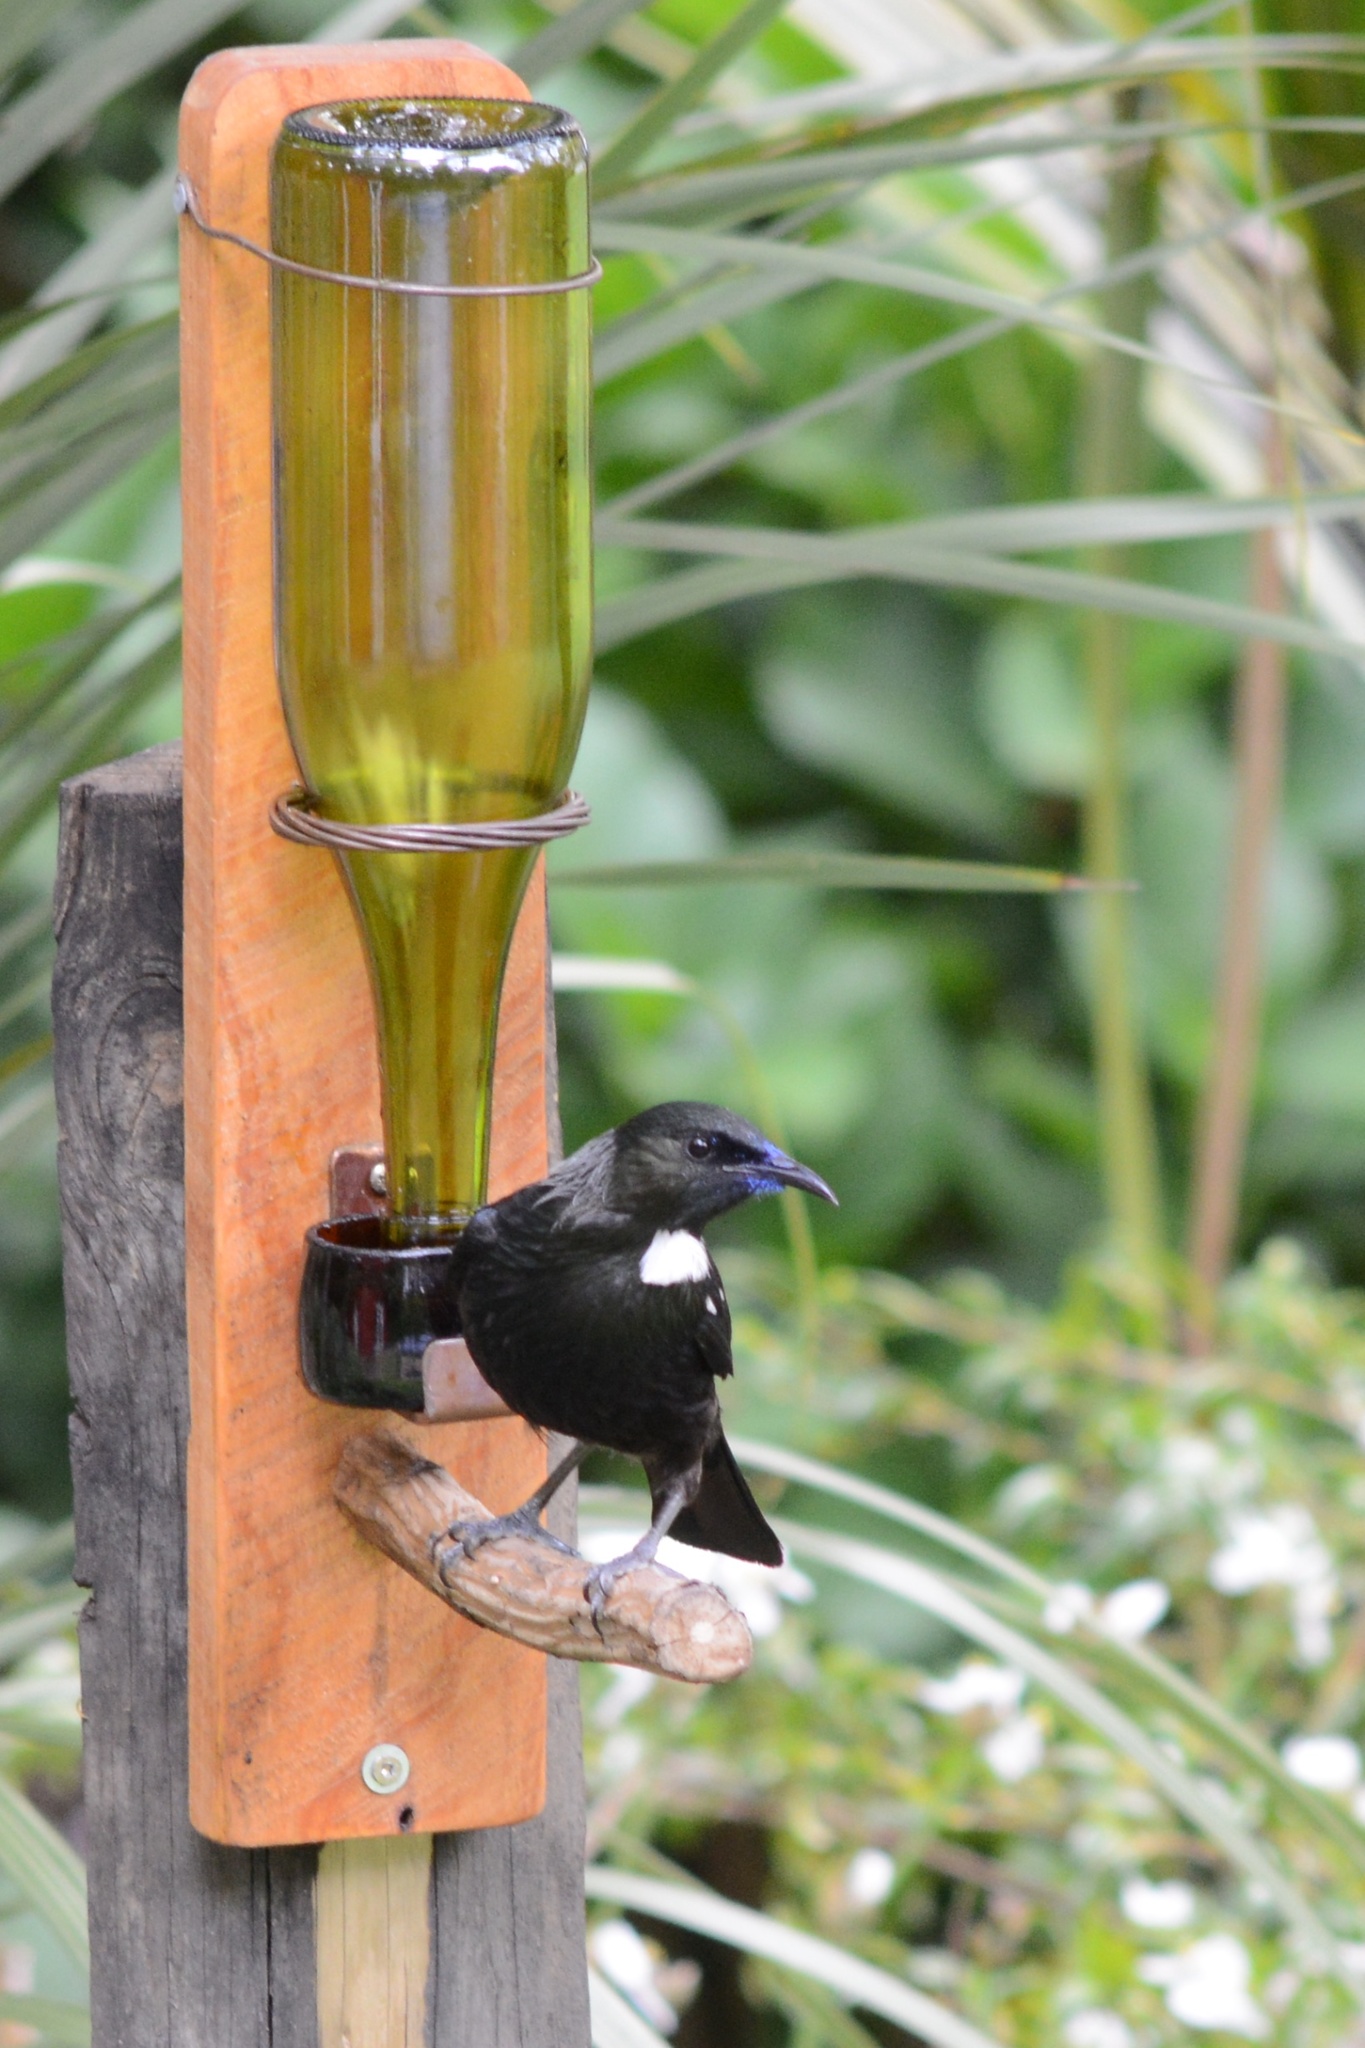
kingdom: Animalia
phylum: Chordata
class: Aves
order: Passeriformes
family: Meliphagidae
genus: Prosthemadera
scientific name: Prosthemadera novaeseelandiae
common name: Tui
